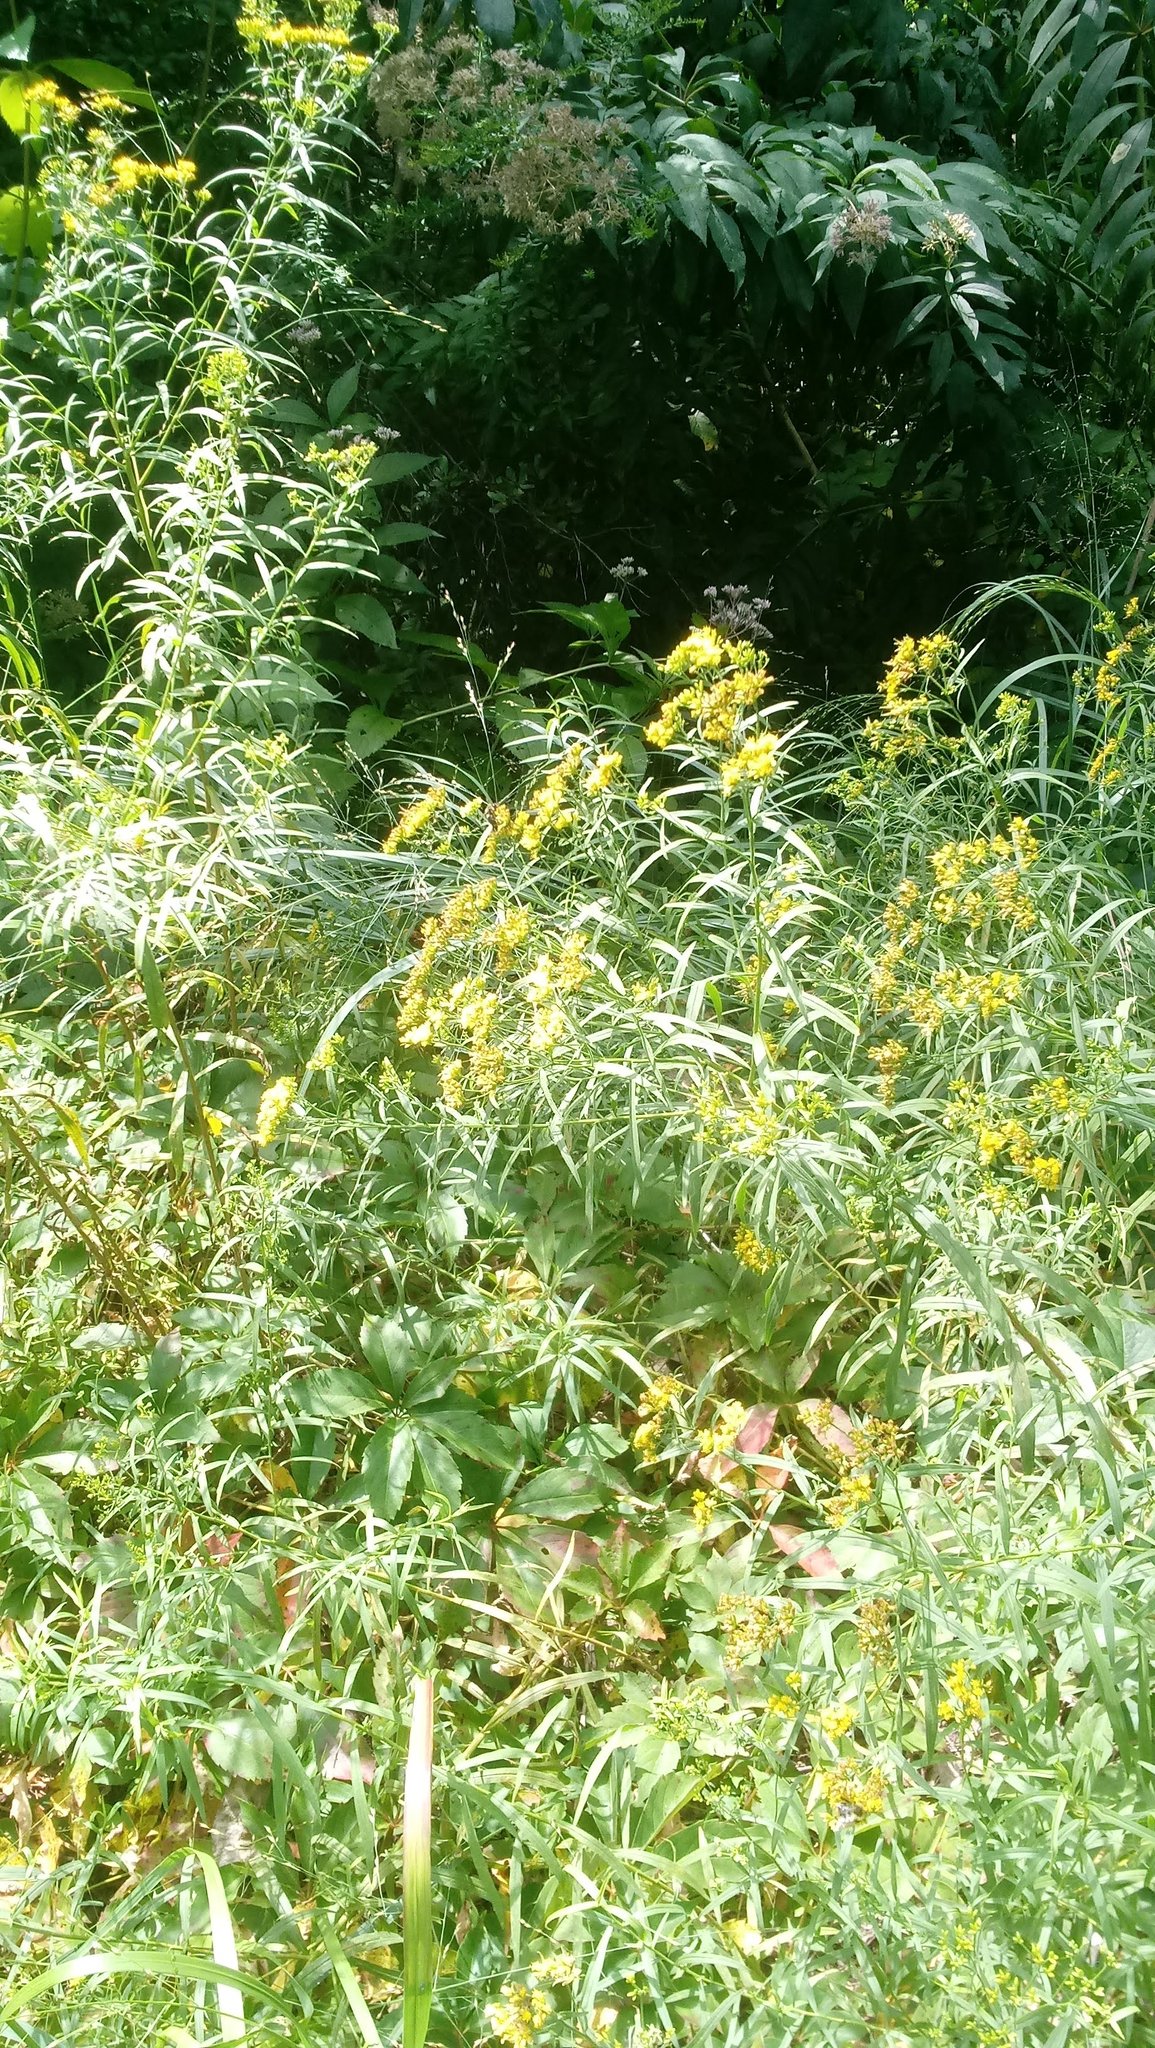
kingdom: Plantae
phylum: Tracheophyta
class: Magnoliopsida
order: Asterales
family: Asteraceae
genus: Euthamia
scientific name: Euthamia graminifolia
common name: Common goldentop
